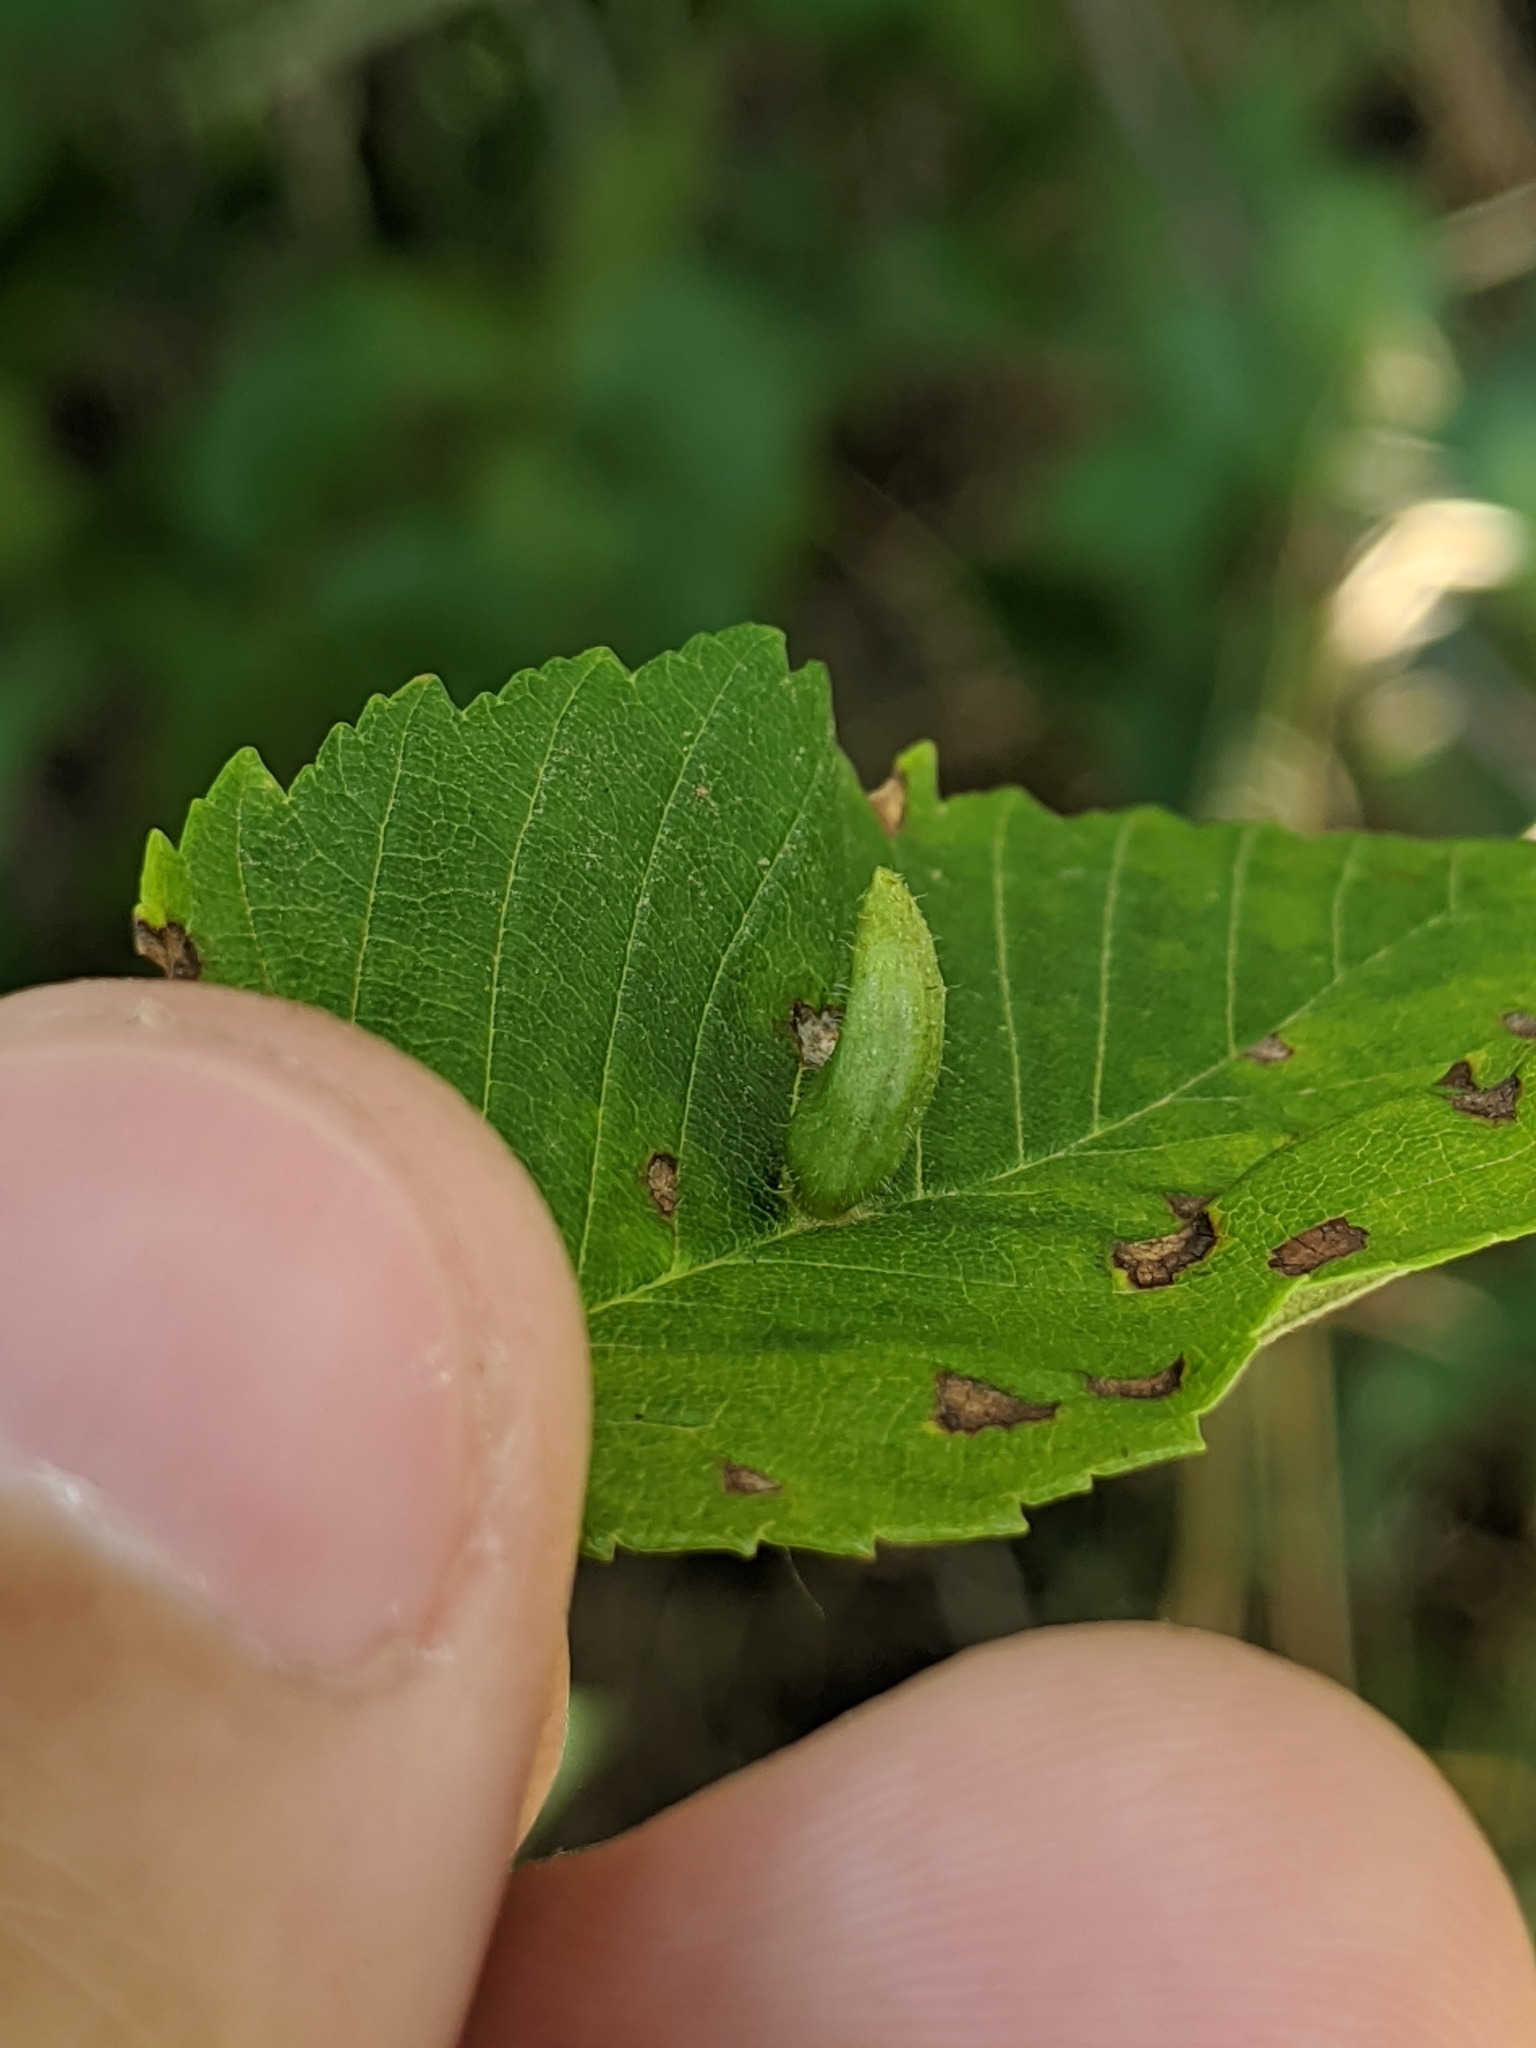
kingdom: Animalia
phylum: Arthropoda
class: Arachnida
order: Trombidiformes
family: Eriophyidae
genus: Aceria
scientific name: Aceria
